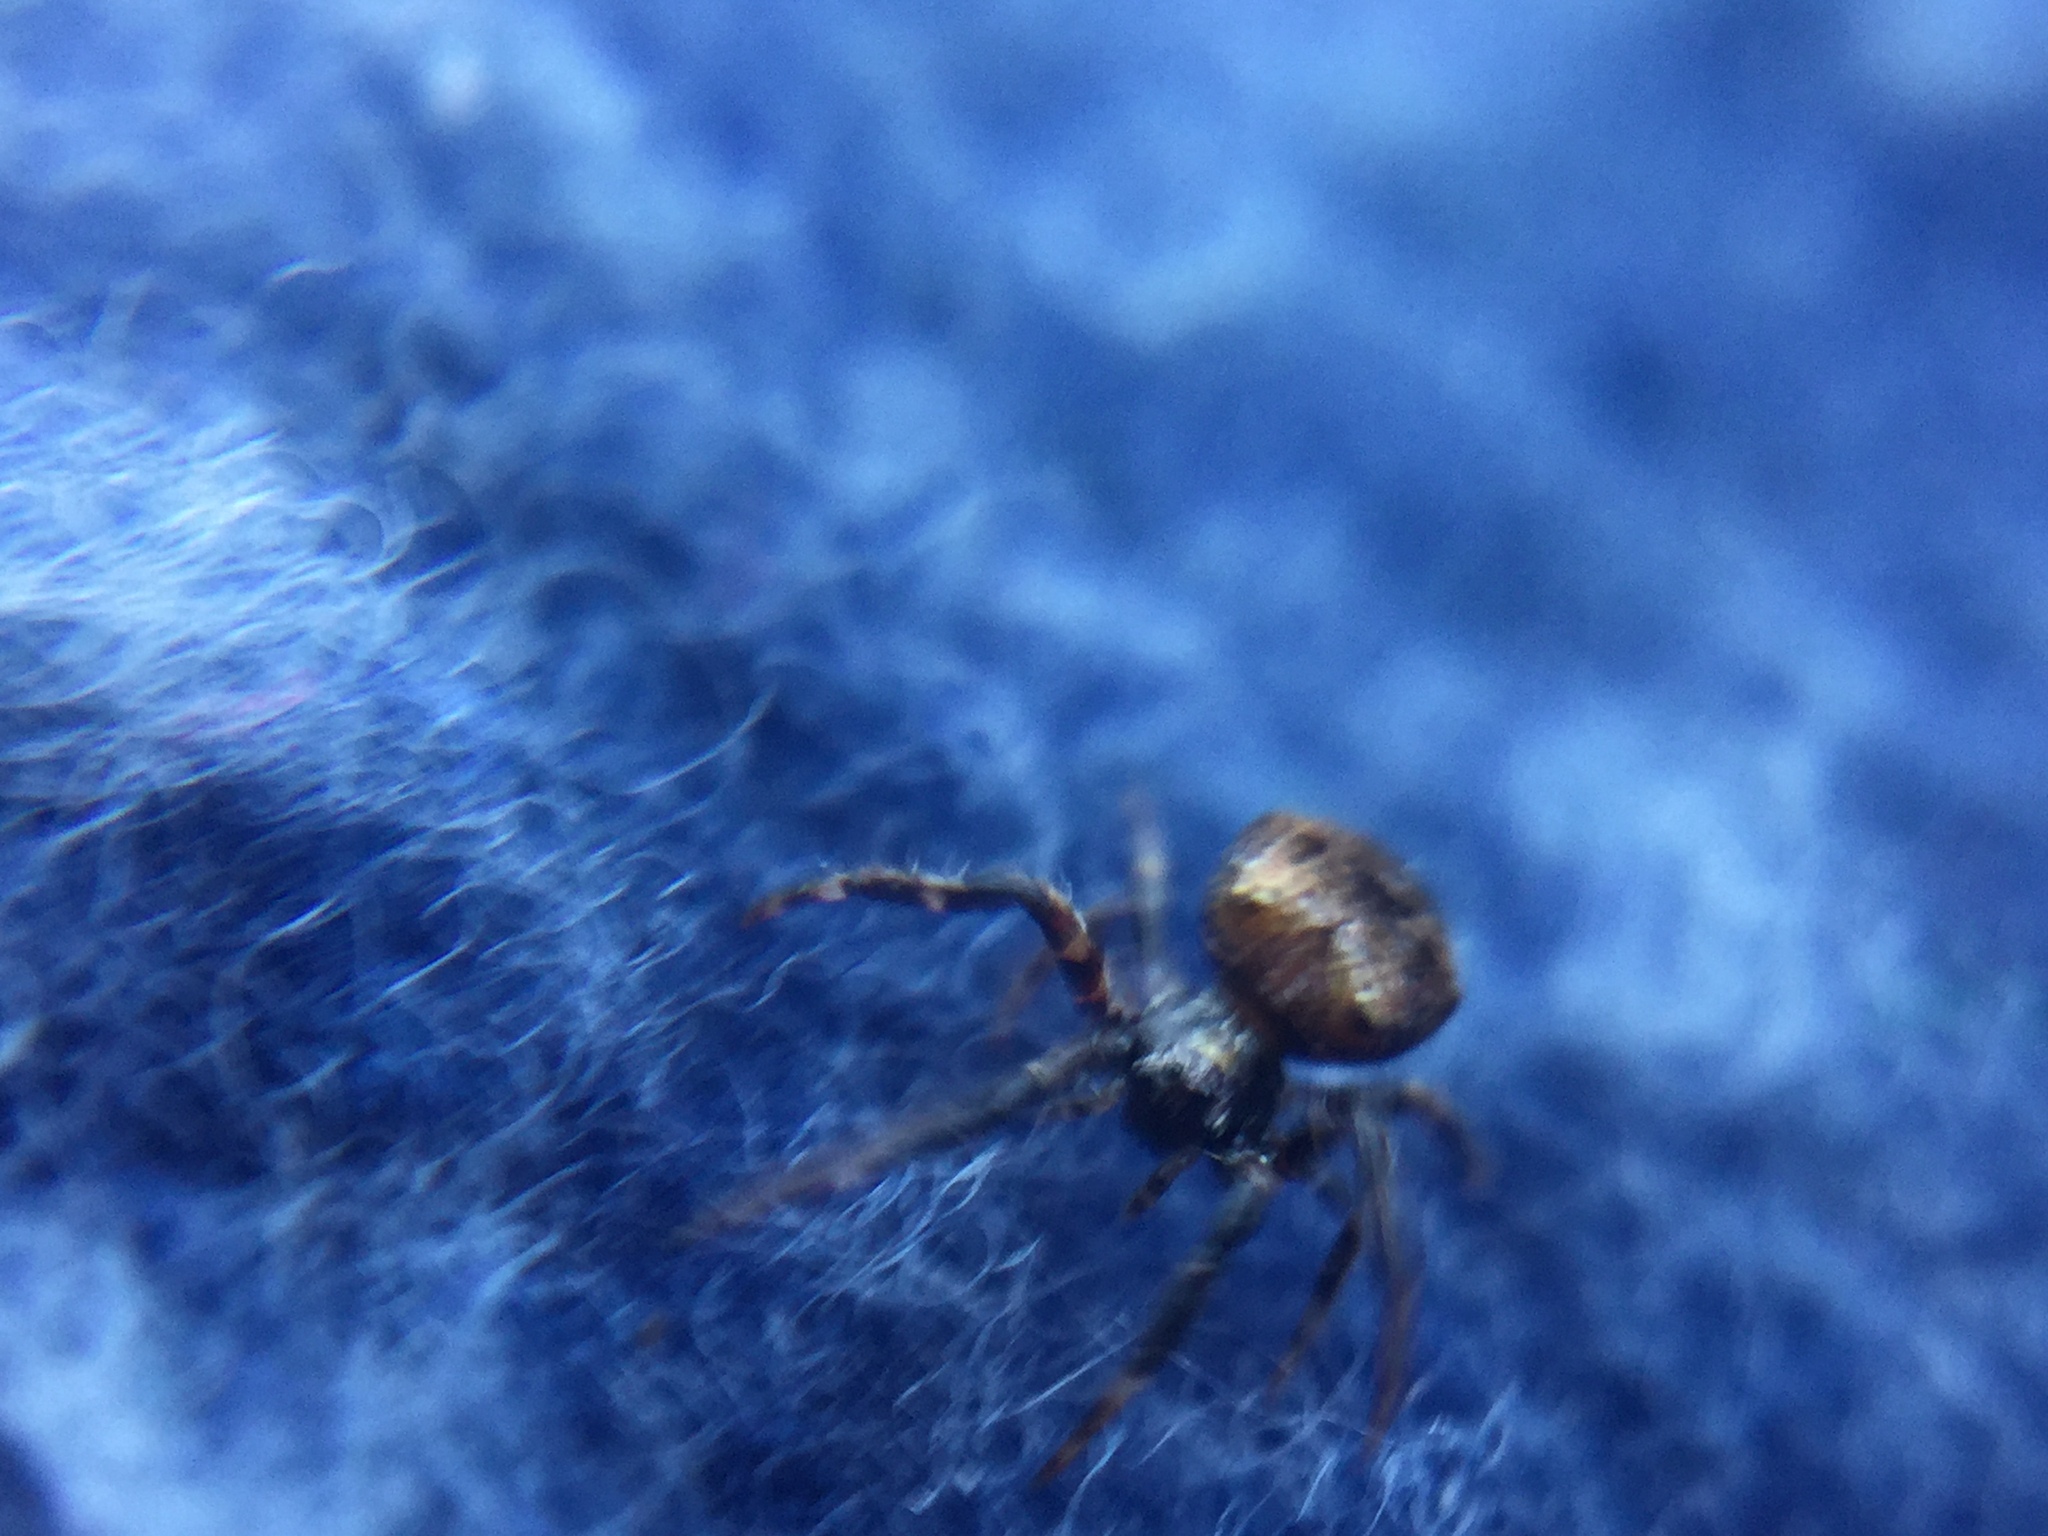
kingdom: Animalia
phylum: Arthropoda
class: Arachnida
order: Araneae
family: Araneidae
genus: Gea
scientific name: Gea heptagon
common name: Orb weavers
